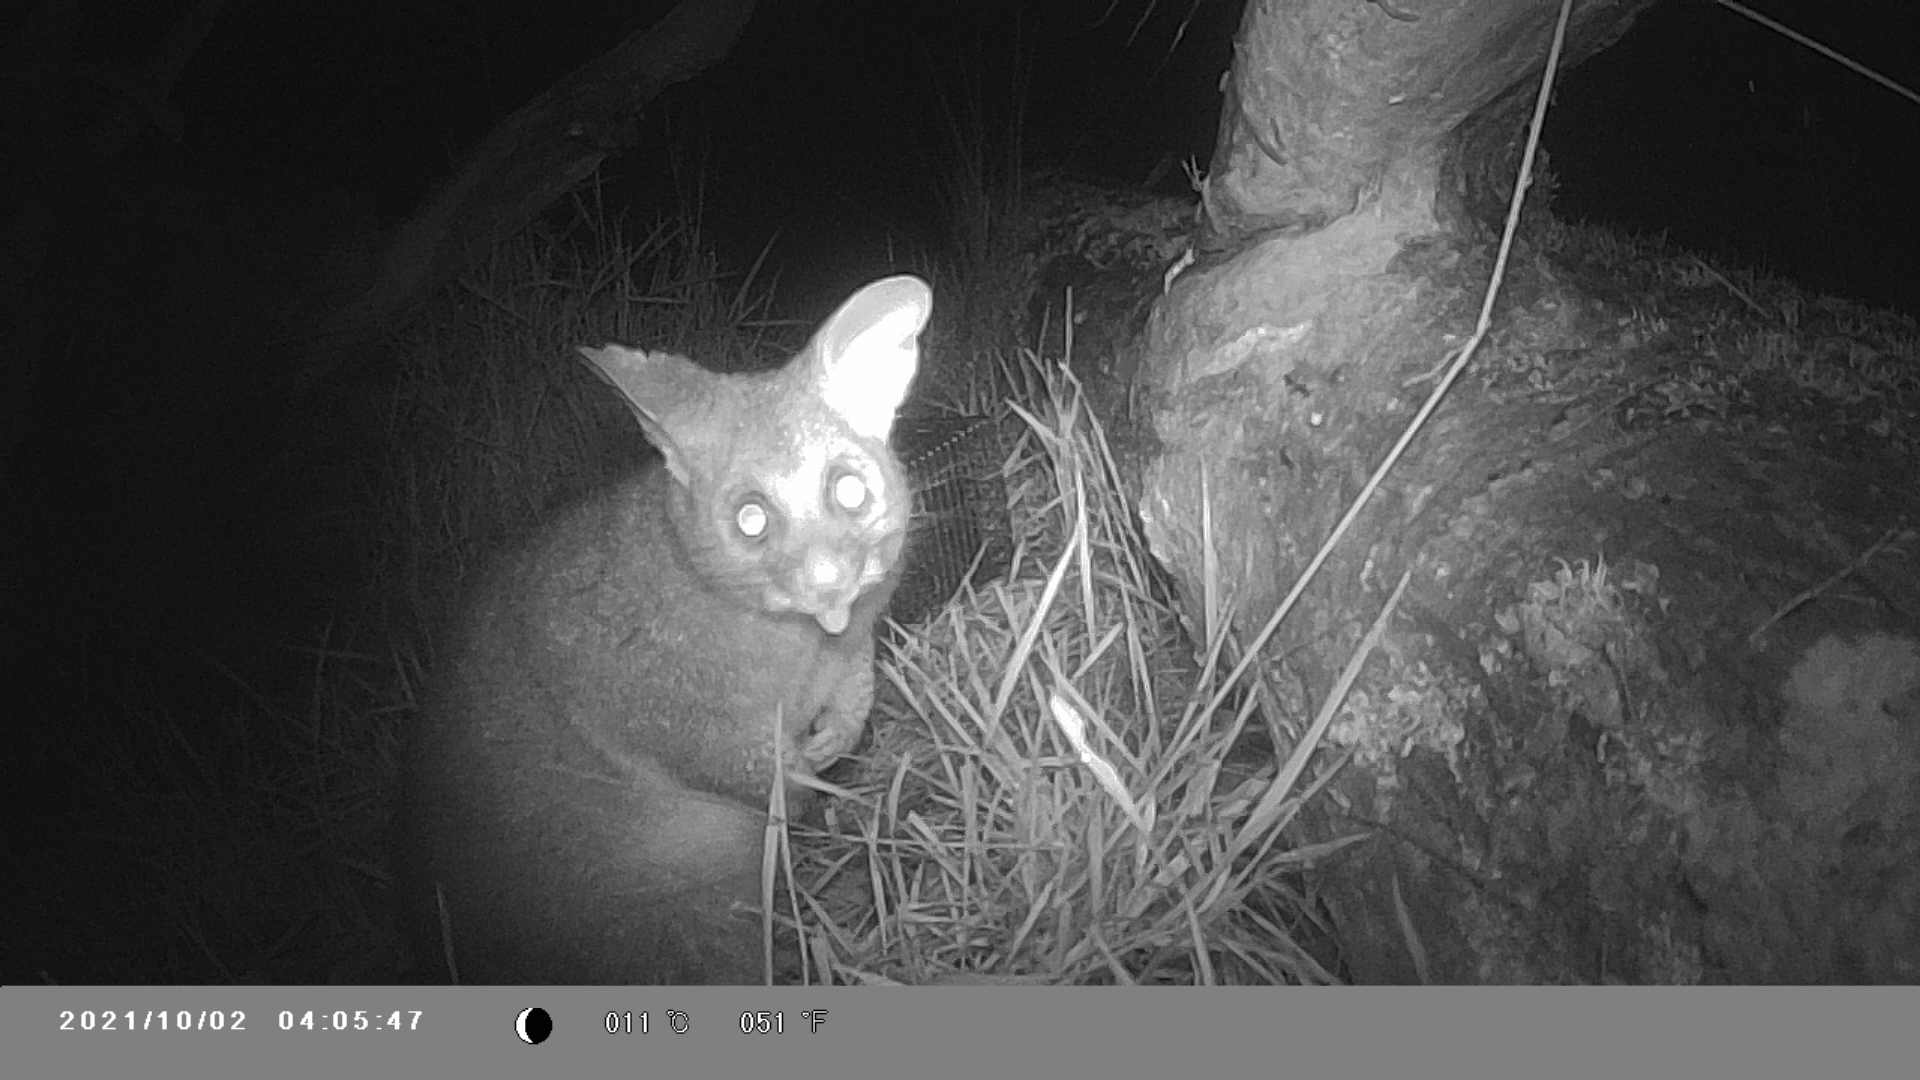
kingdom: Animalia
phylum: Chordata
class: Mammalia
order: Diprotodontia
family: Phalangeridae
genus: Trichosurus
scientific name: Trichosurus vulpecula
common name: Common brushtail
